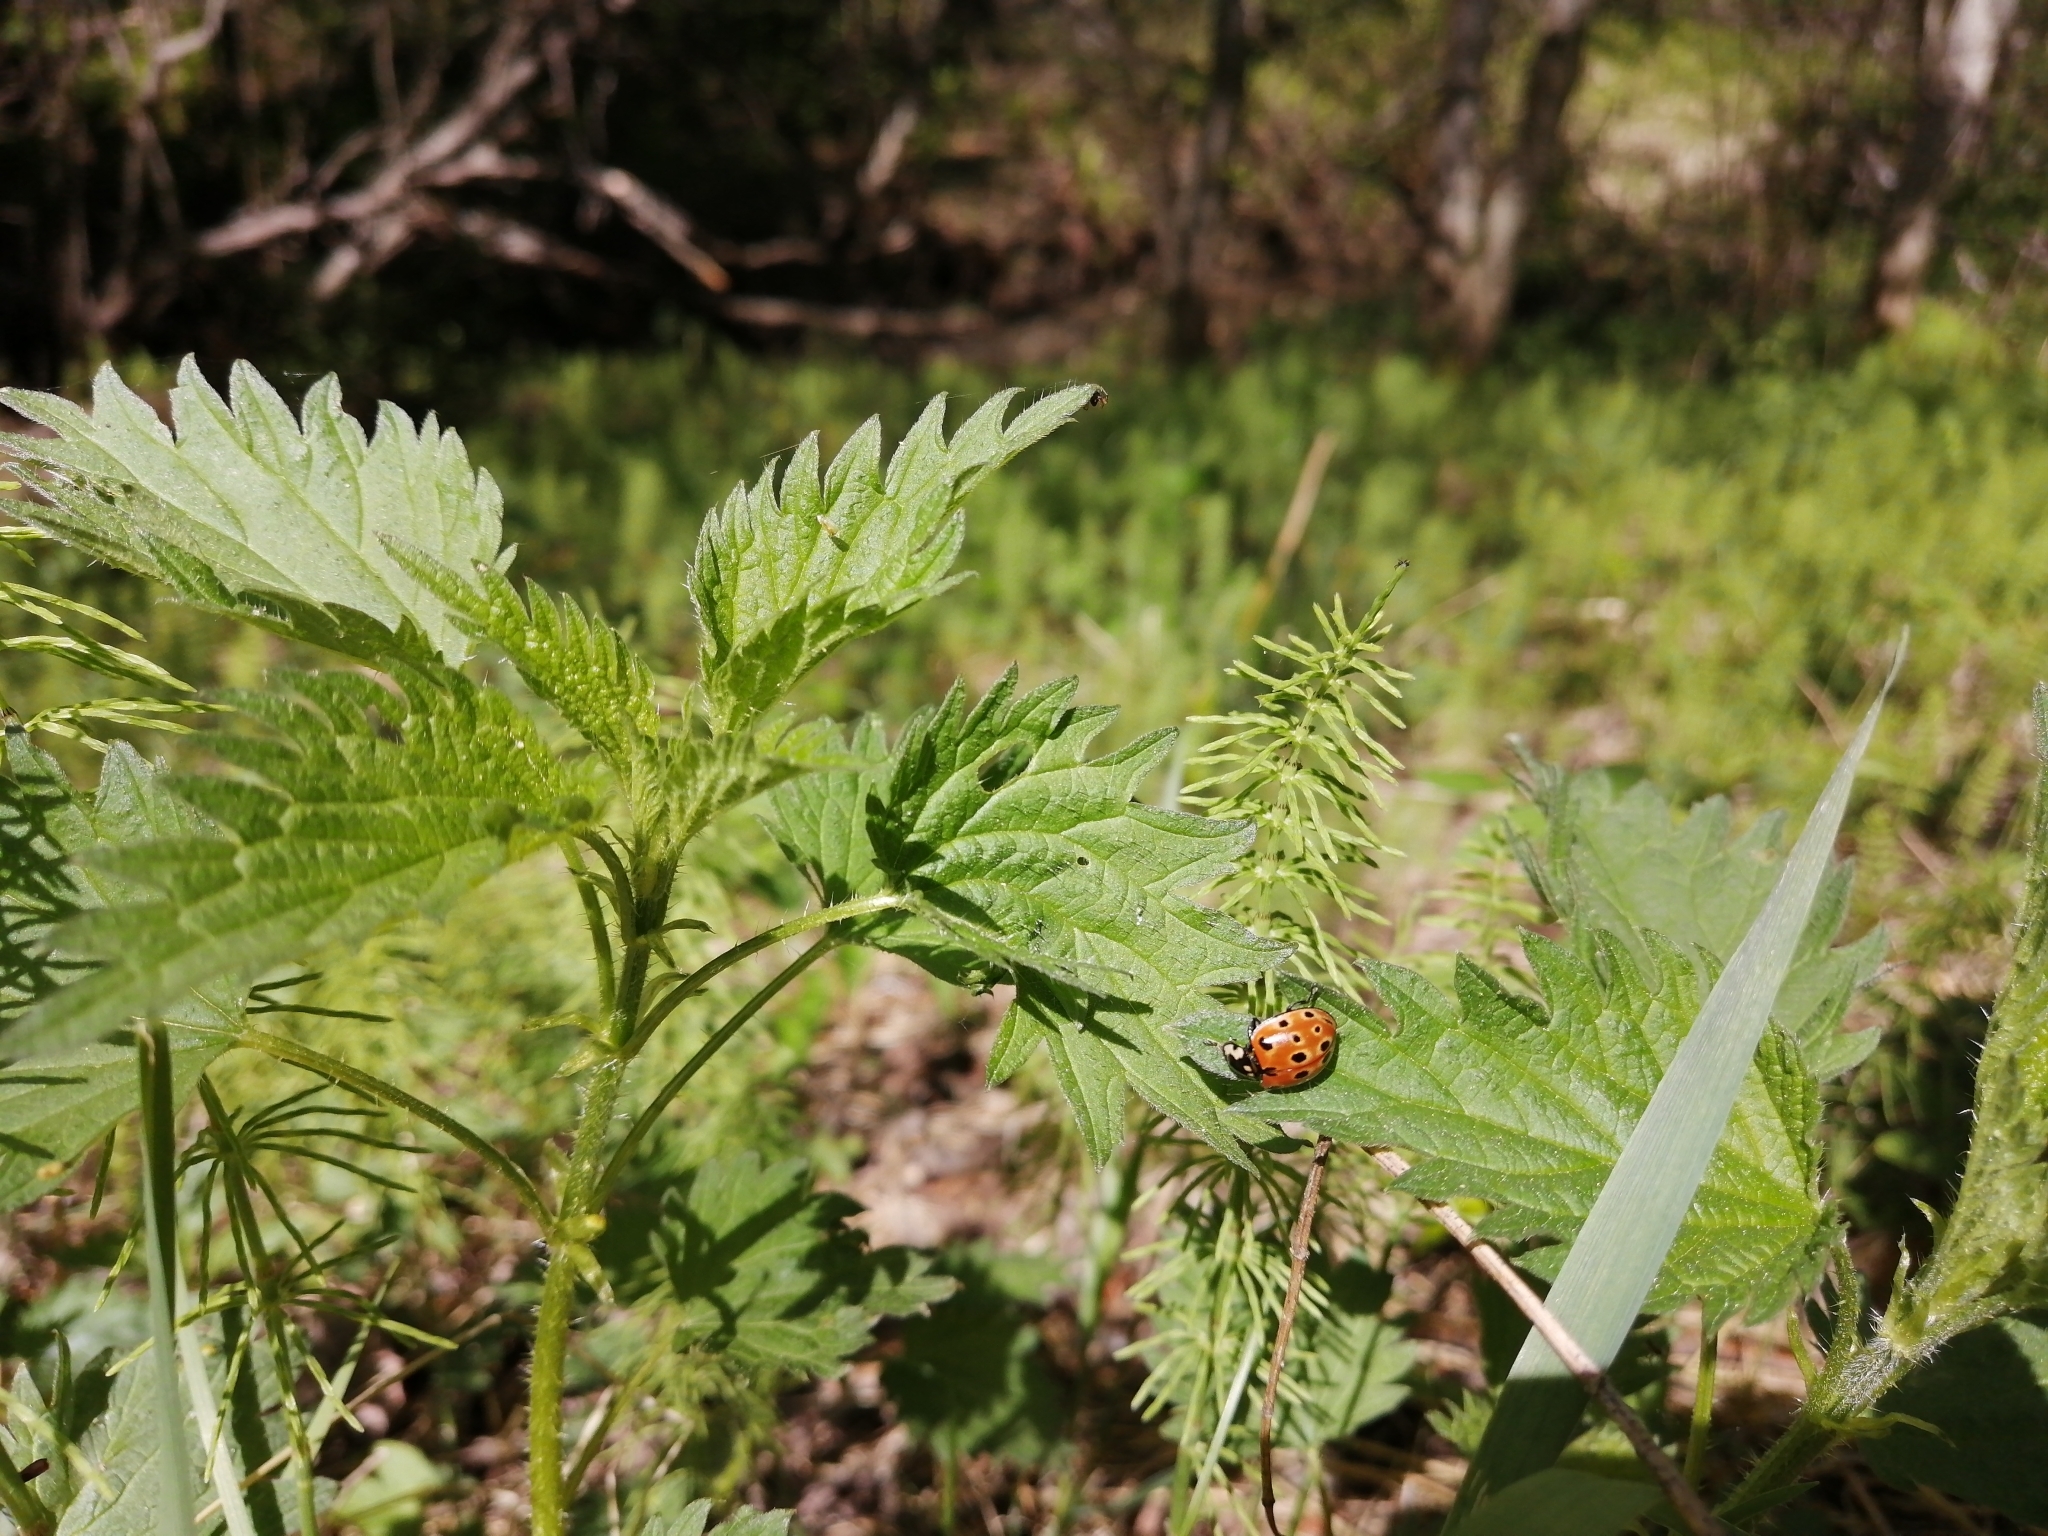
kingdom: Animalia
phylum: Arthropoda
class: Insecta
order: Coleoptera
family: Coccinellidae
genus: Anatis
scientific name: Anatis ocellata
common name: Eyed ladybird
